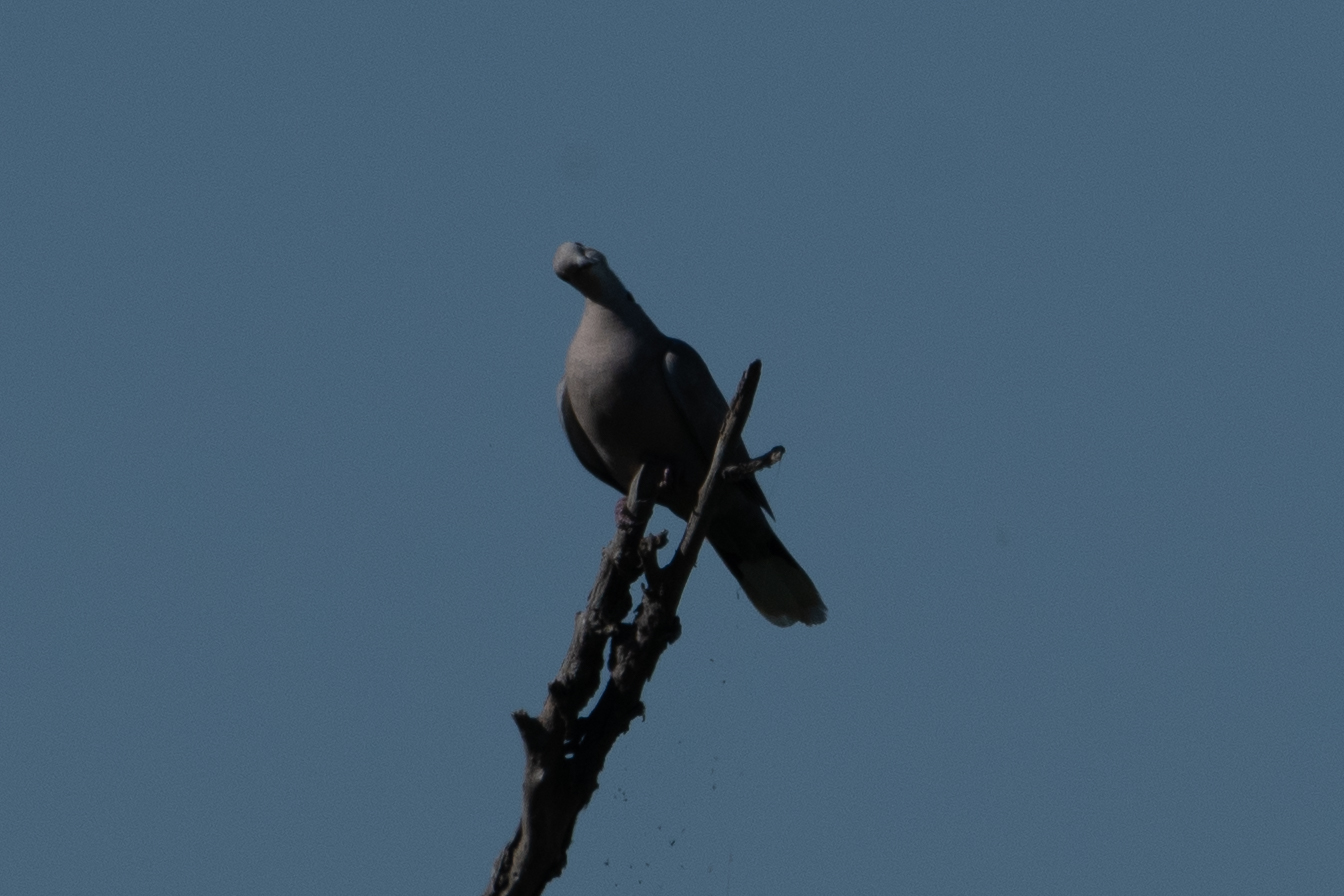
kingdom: Animalia
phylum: Chordata
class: Aves
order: Columbiformes
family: Columbidae
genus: Streptopelia
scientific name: Streptopelia decaocto
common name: Eurasian collared dove
